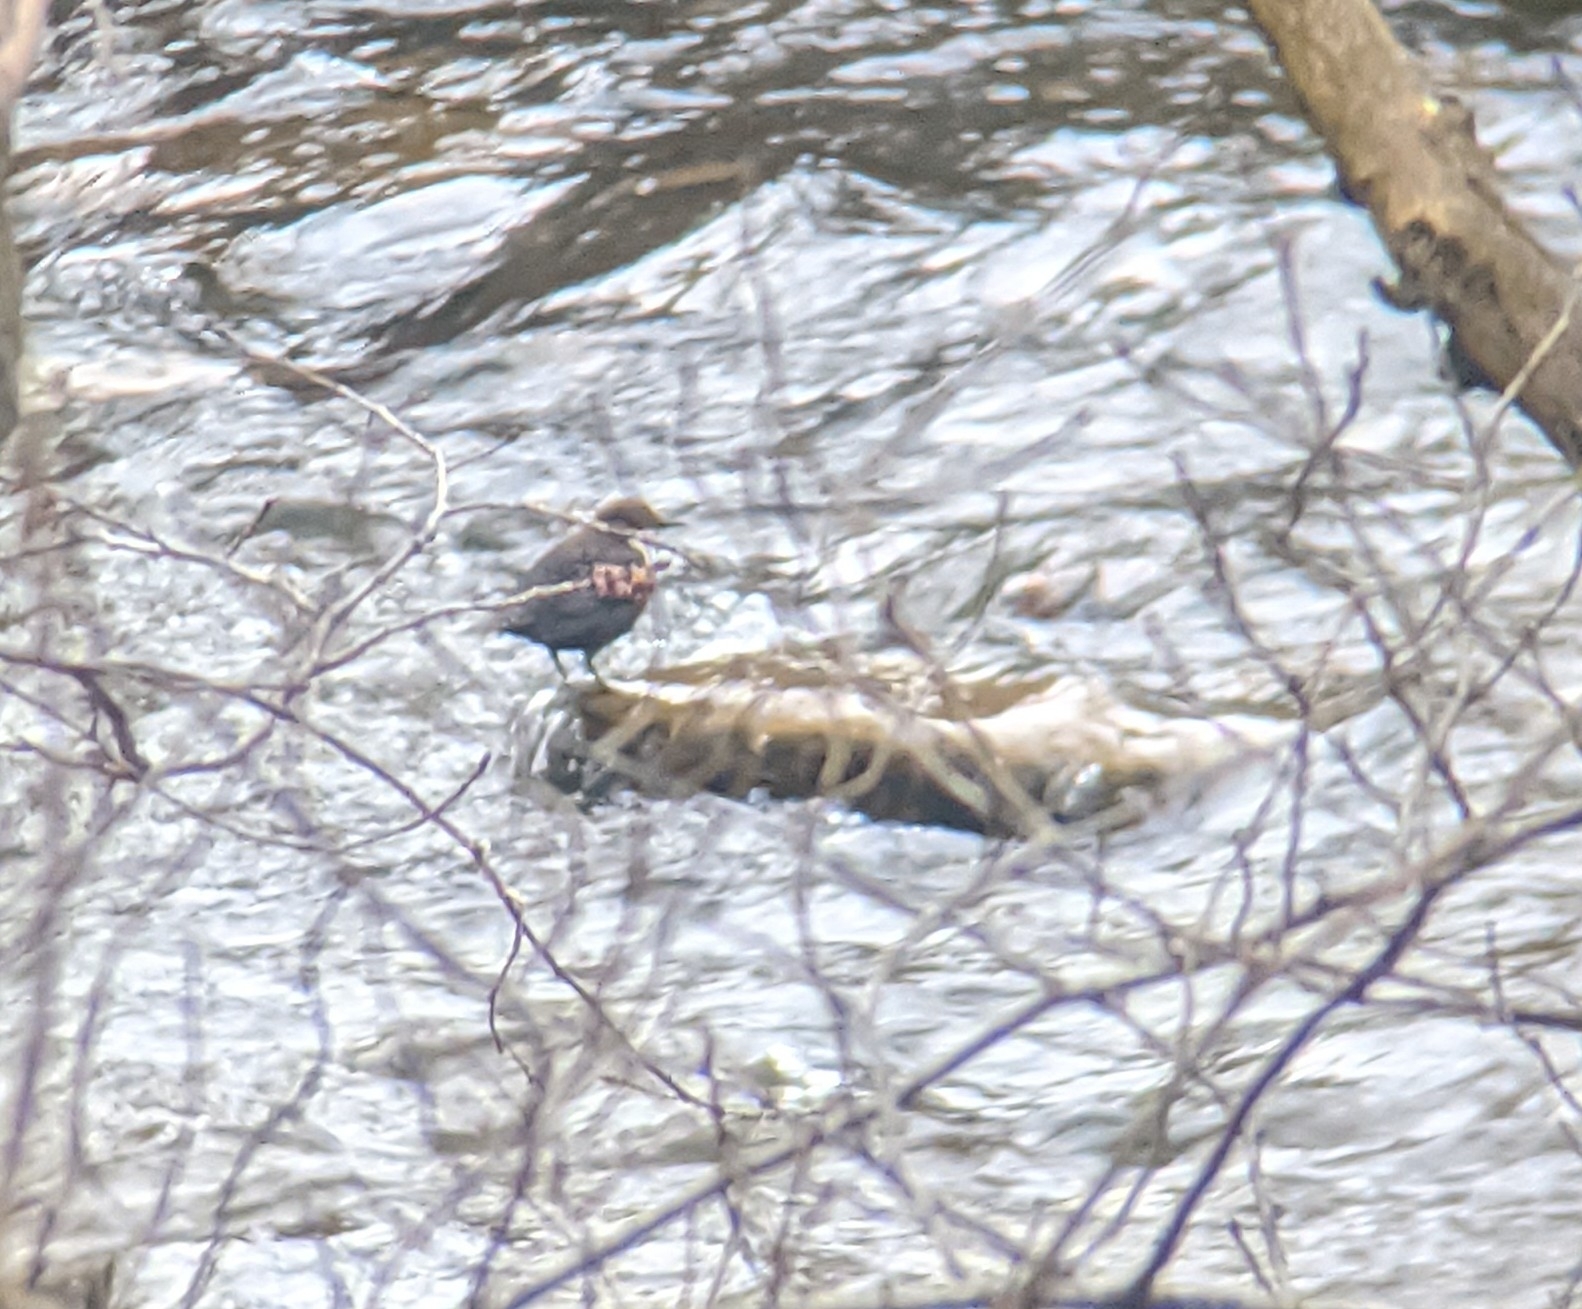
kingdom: Animalia
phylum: Chordata
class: Aves
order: Passeriformes
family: Cinclidae
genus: Cinclus
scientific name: Cinclus cinclus
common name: White-throated dipper
